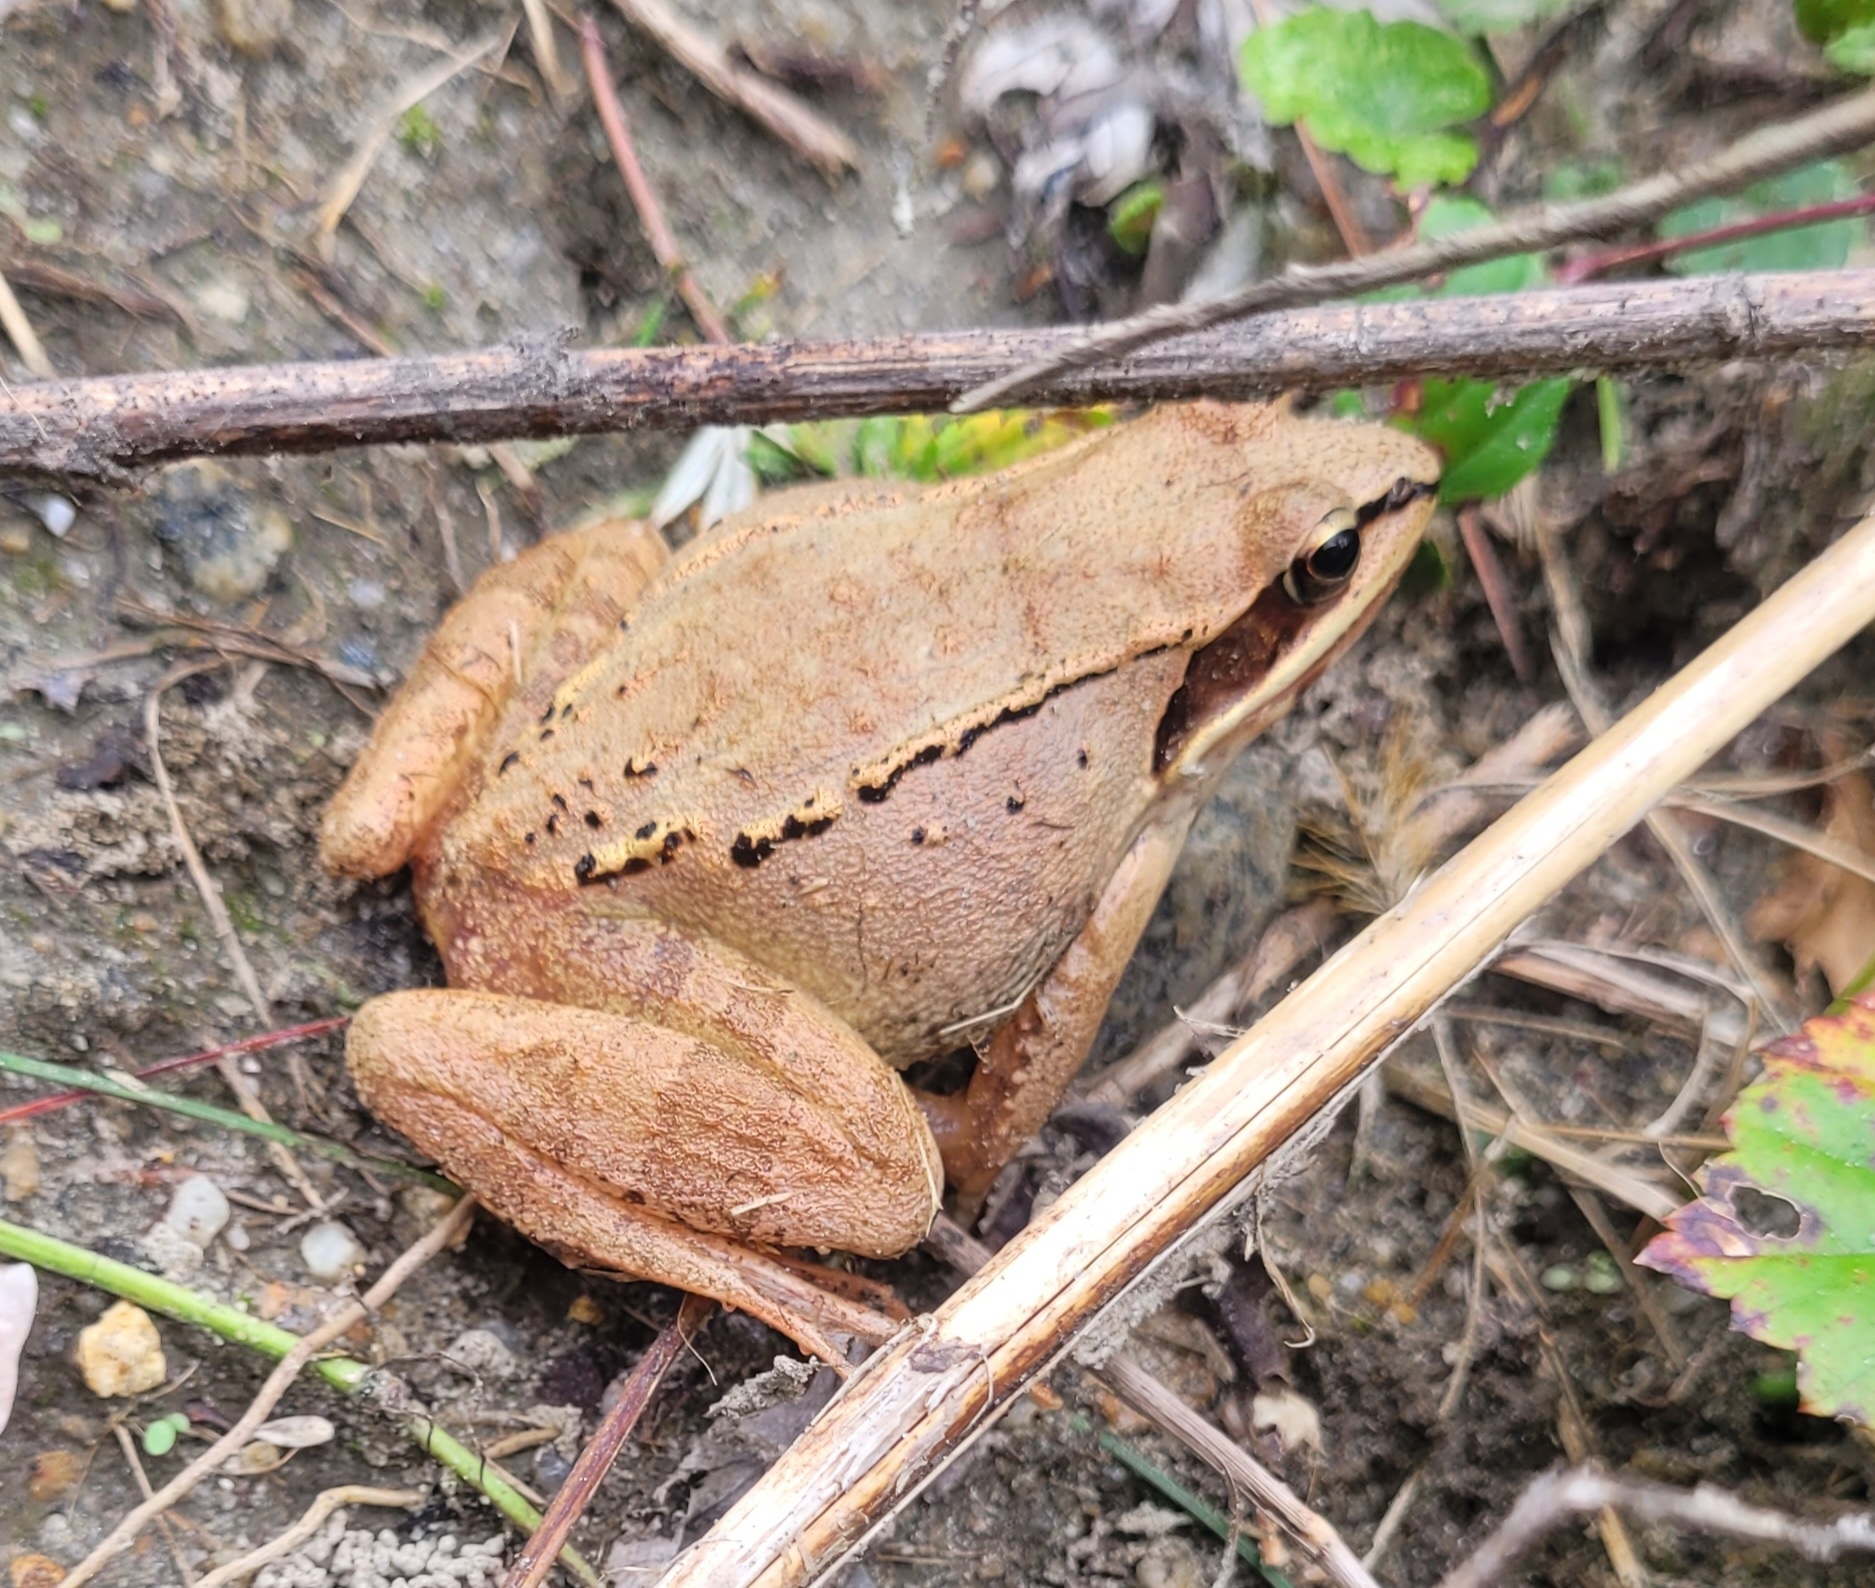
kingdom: Animalia
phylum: Chordata
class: Amphibia
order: Anura
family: Ranidae
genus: Lithobates
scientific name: Lithobates sylvaticus
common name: Wood frog
